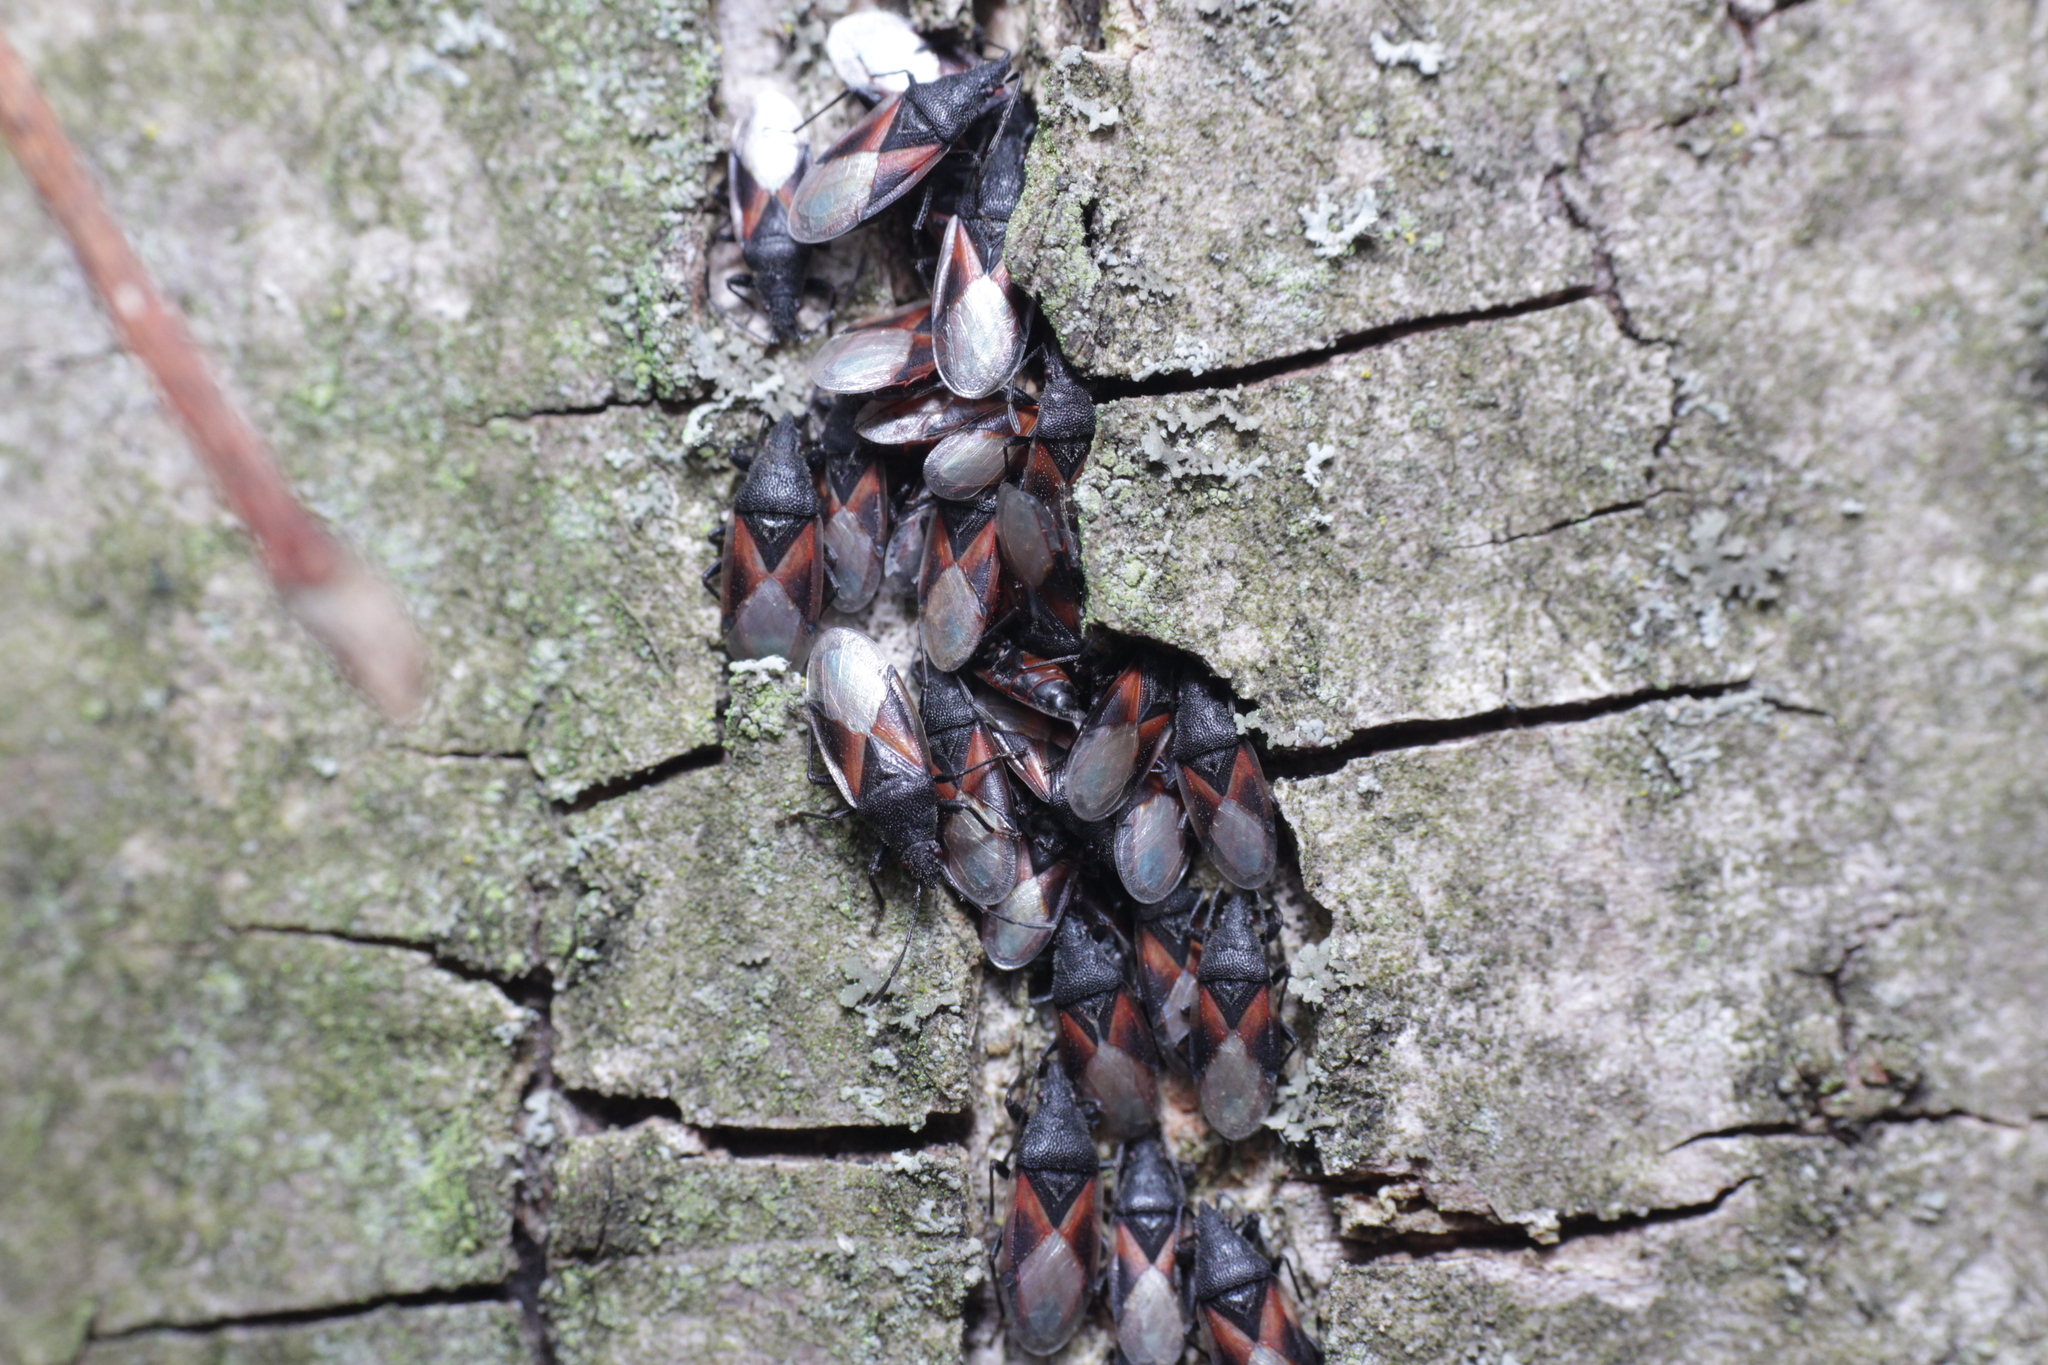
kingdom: Animalia
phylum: Arthropoda
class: Insecta
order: Hemiptera
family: Oxycarenidae
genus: Oxycarenus
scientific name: Oxycarenus lavaterae
